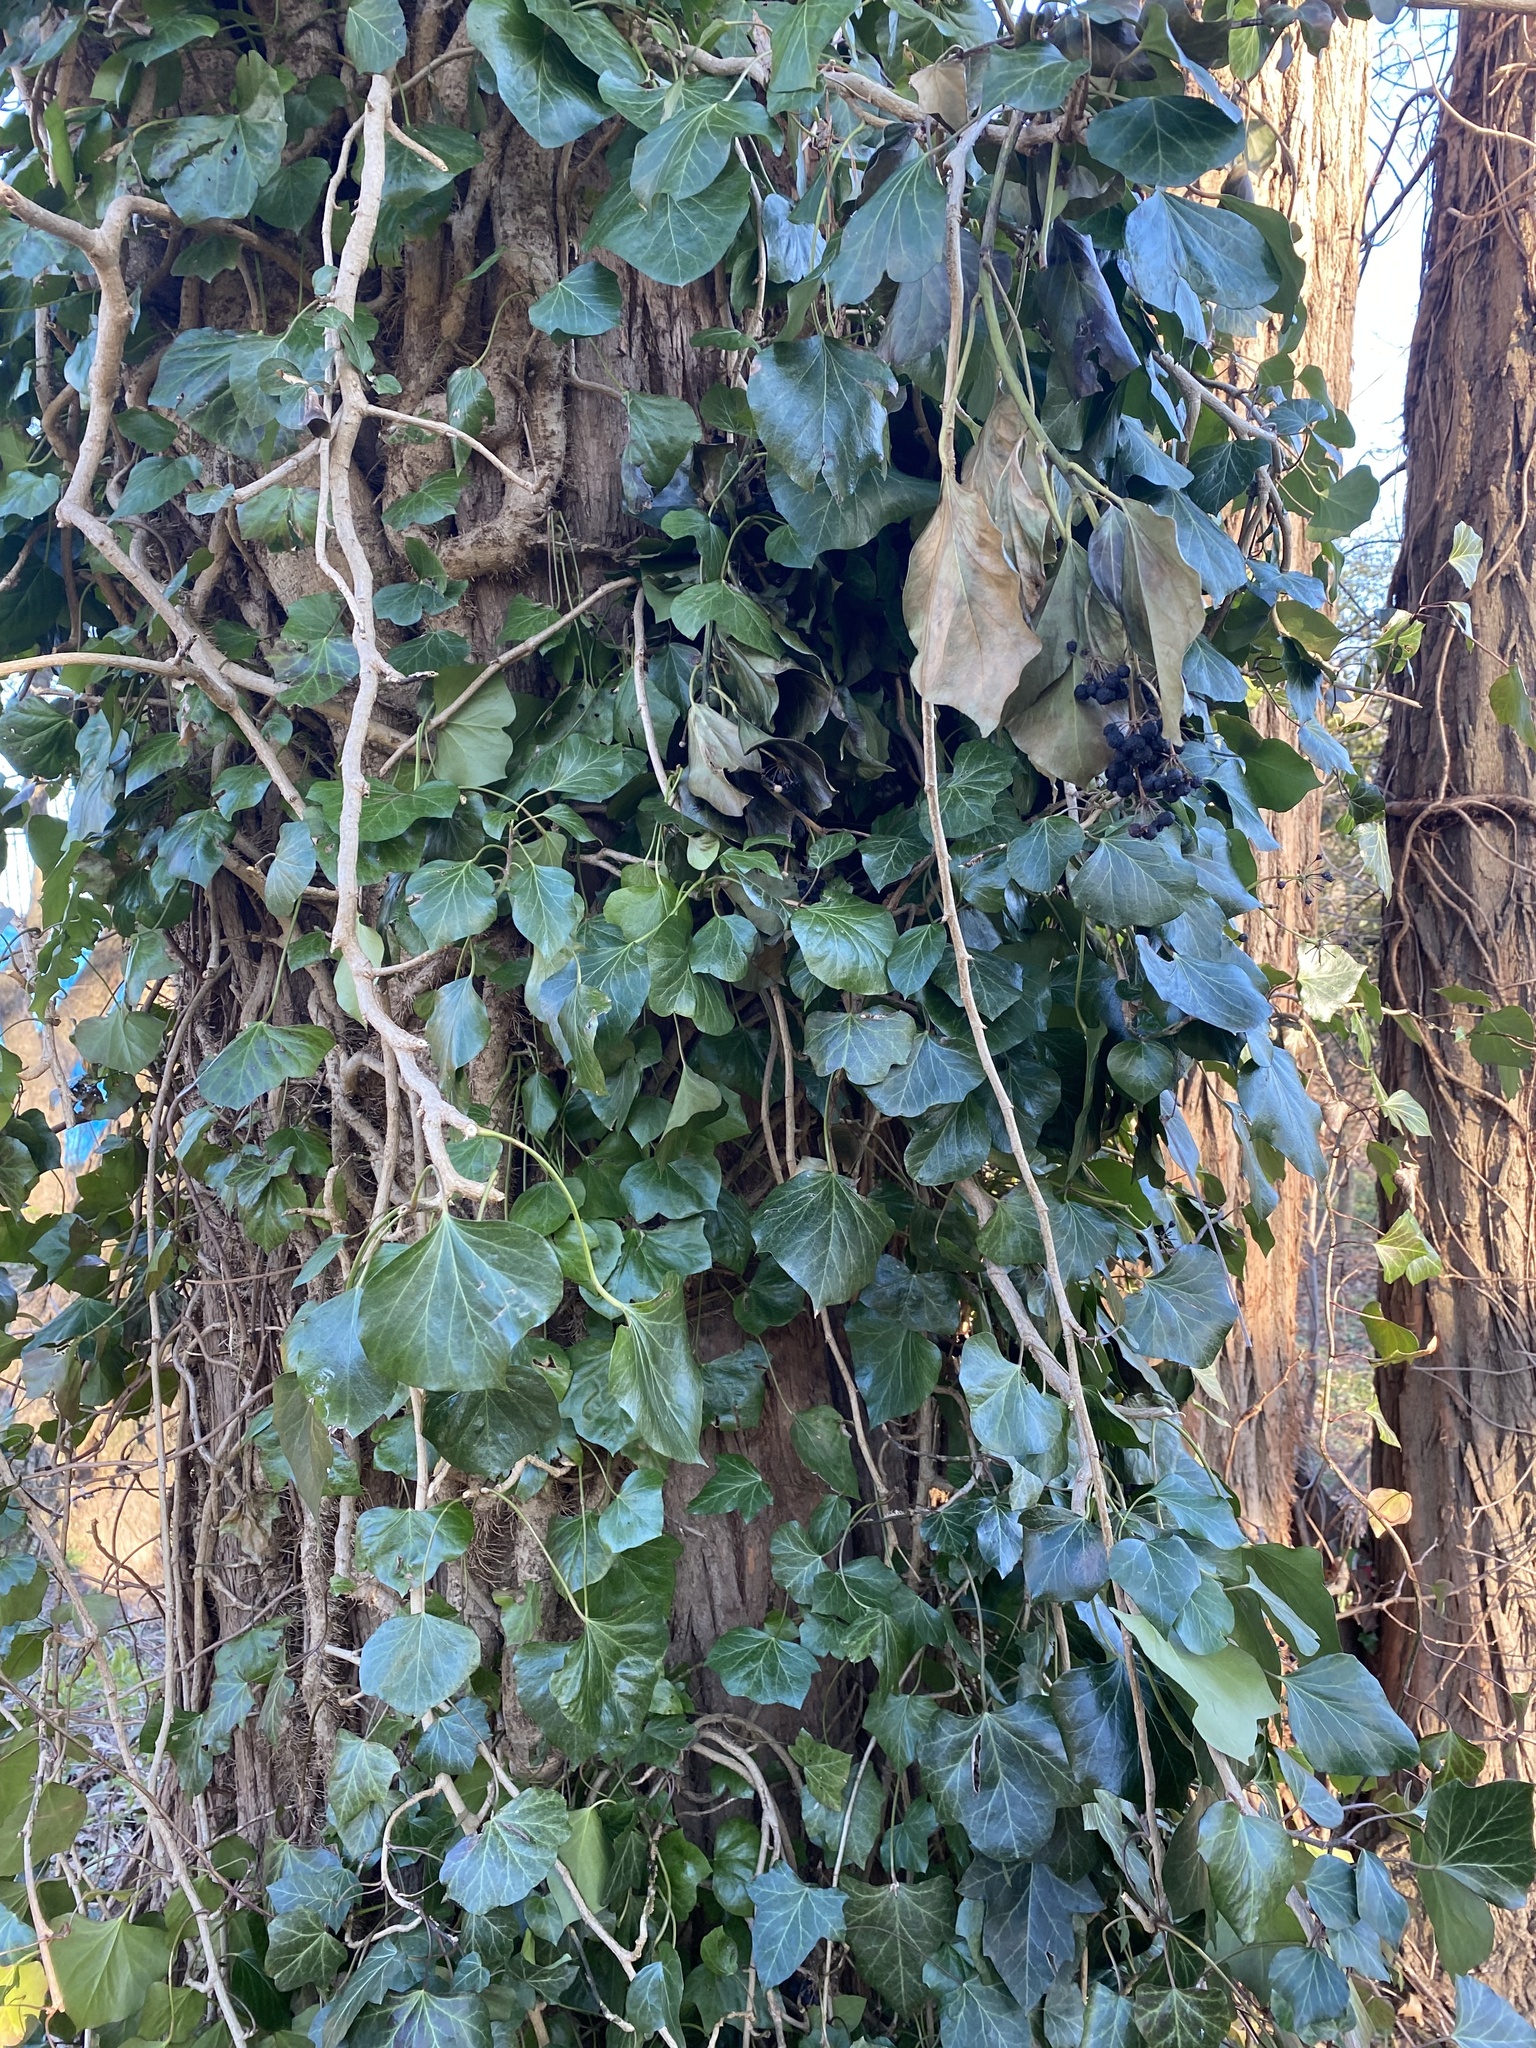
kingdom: Plantae
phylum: Tracheophyta
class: Magnoliopsida
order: Apiales
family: Araliaceae
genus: Hedera
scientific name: Hedera helix
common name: Ivy
